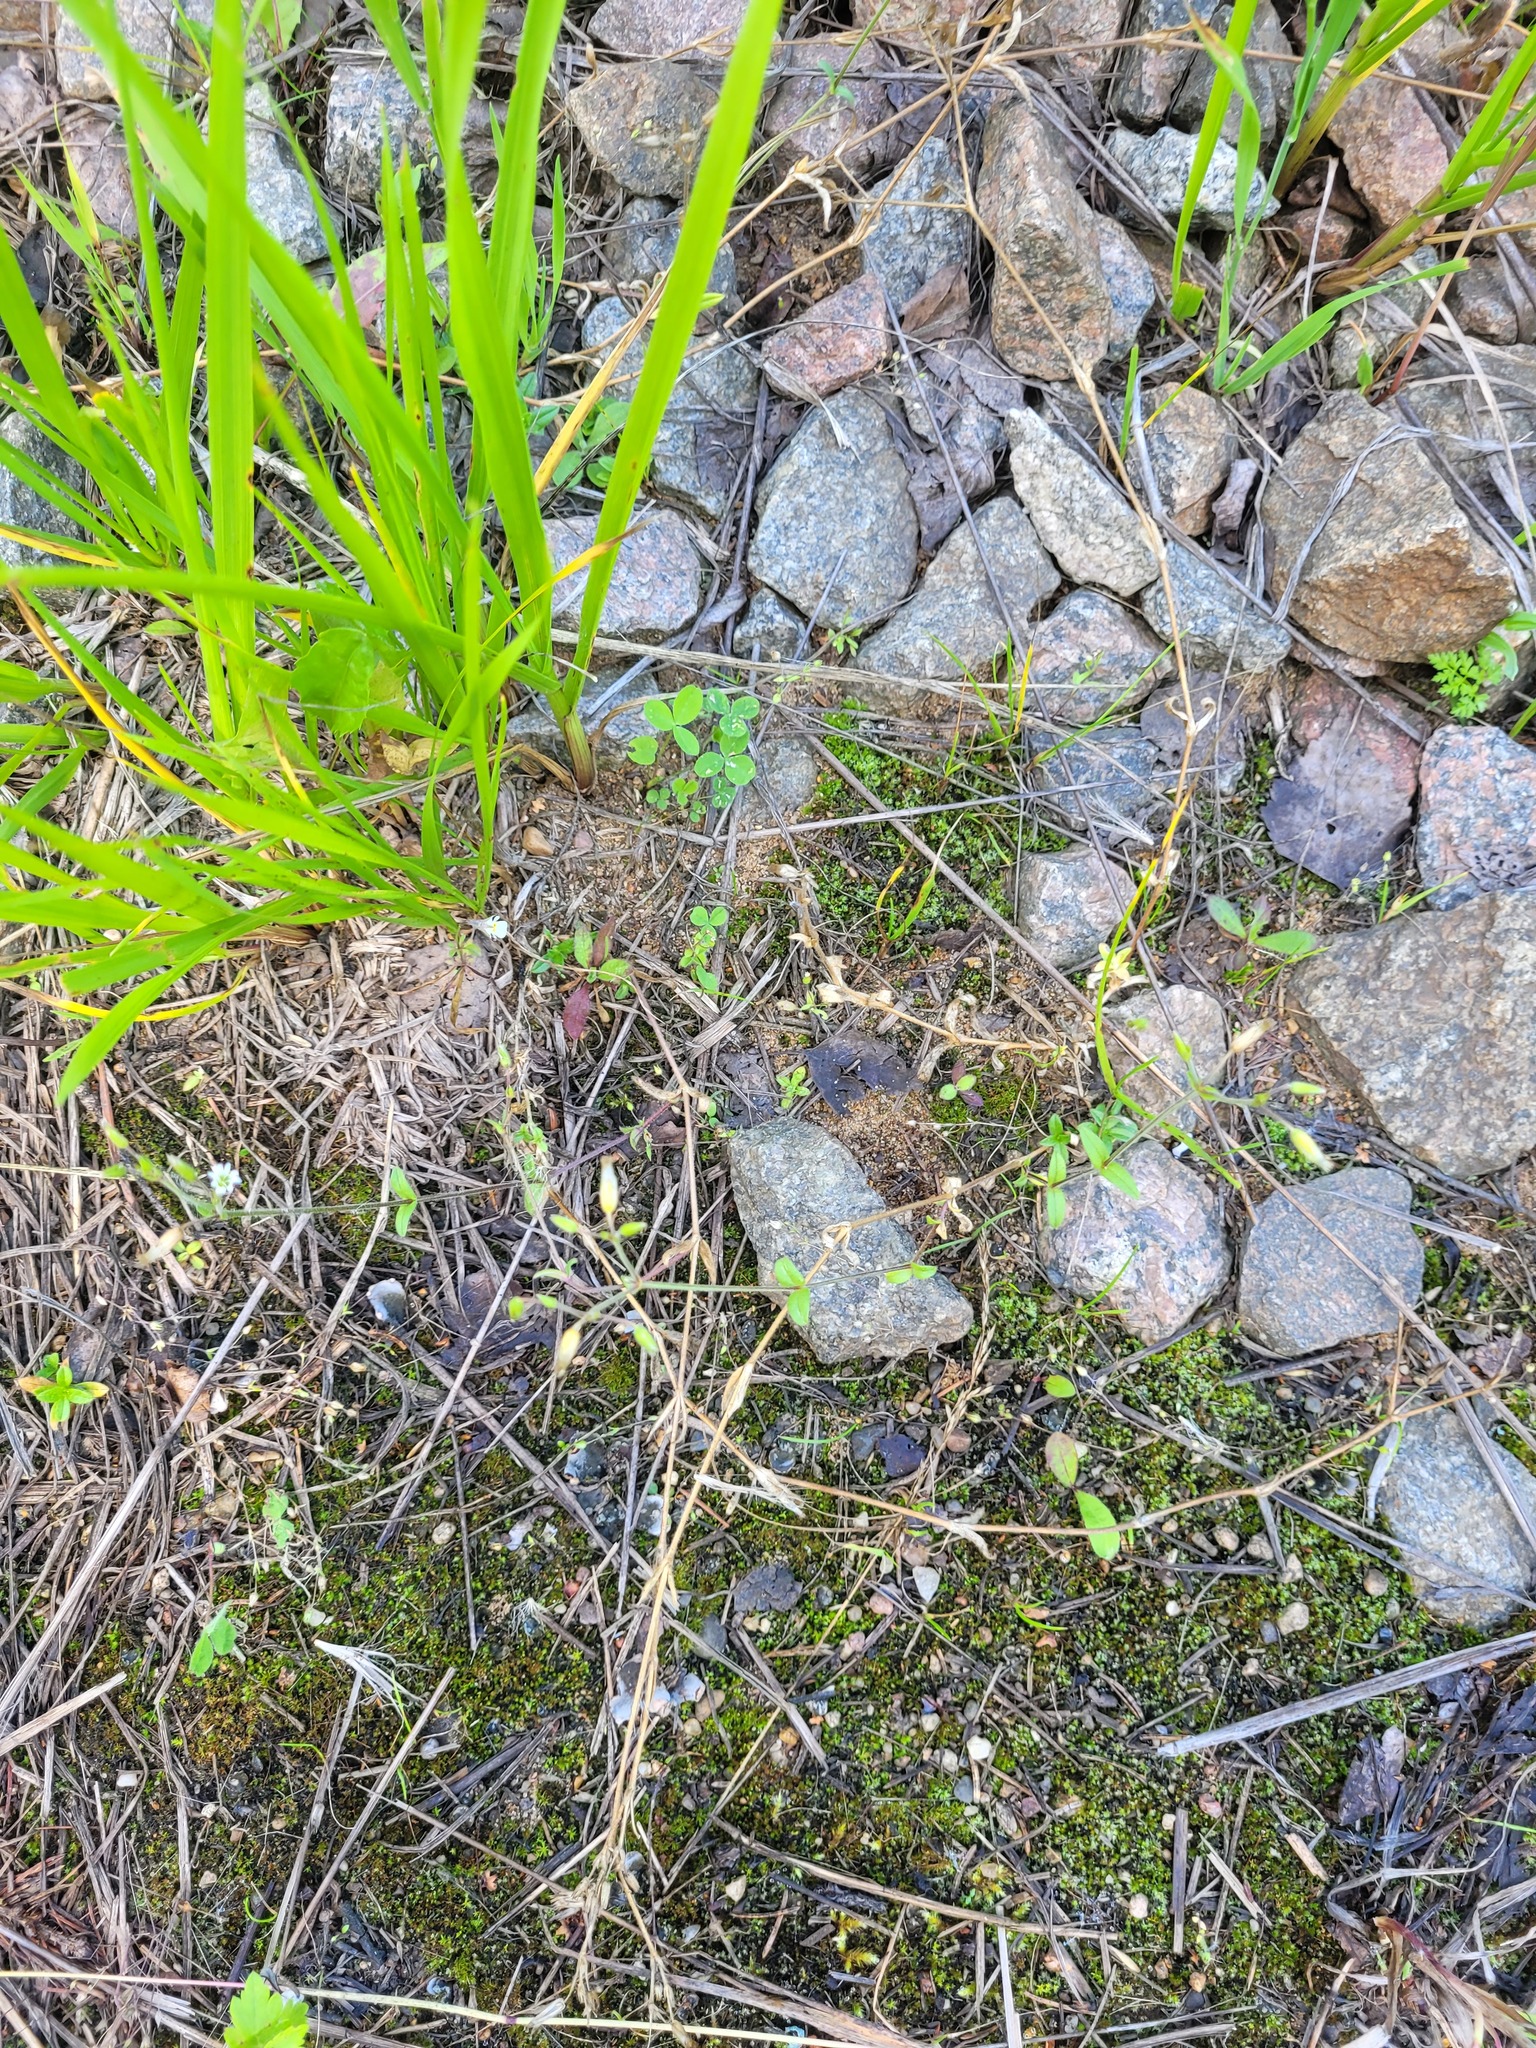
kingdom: Plantae
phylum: Tracheophyta
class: Magnoliopsida
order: Caryophyllales
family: Caryophyllaceae
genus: Cerastium
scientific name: Cerastium holosteoides
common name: Big chickweed
